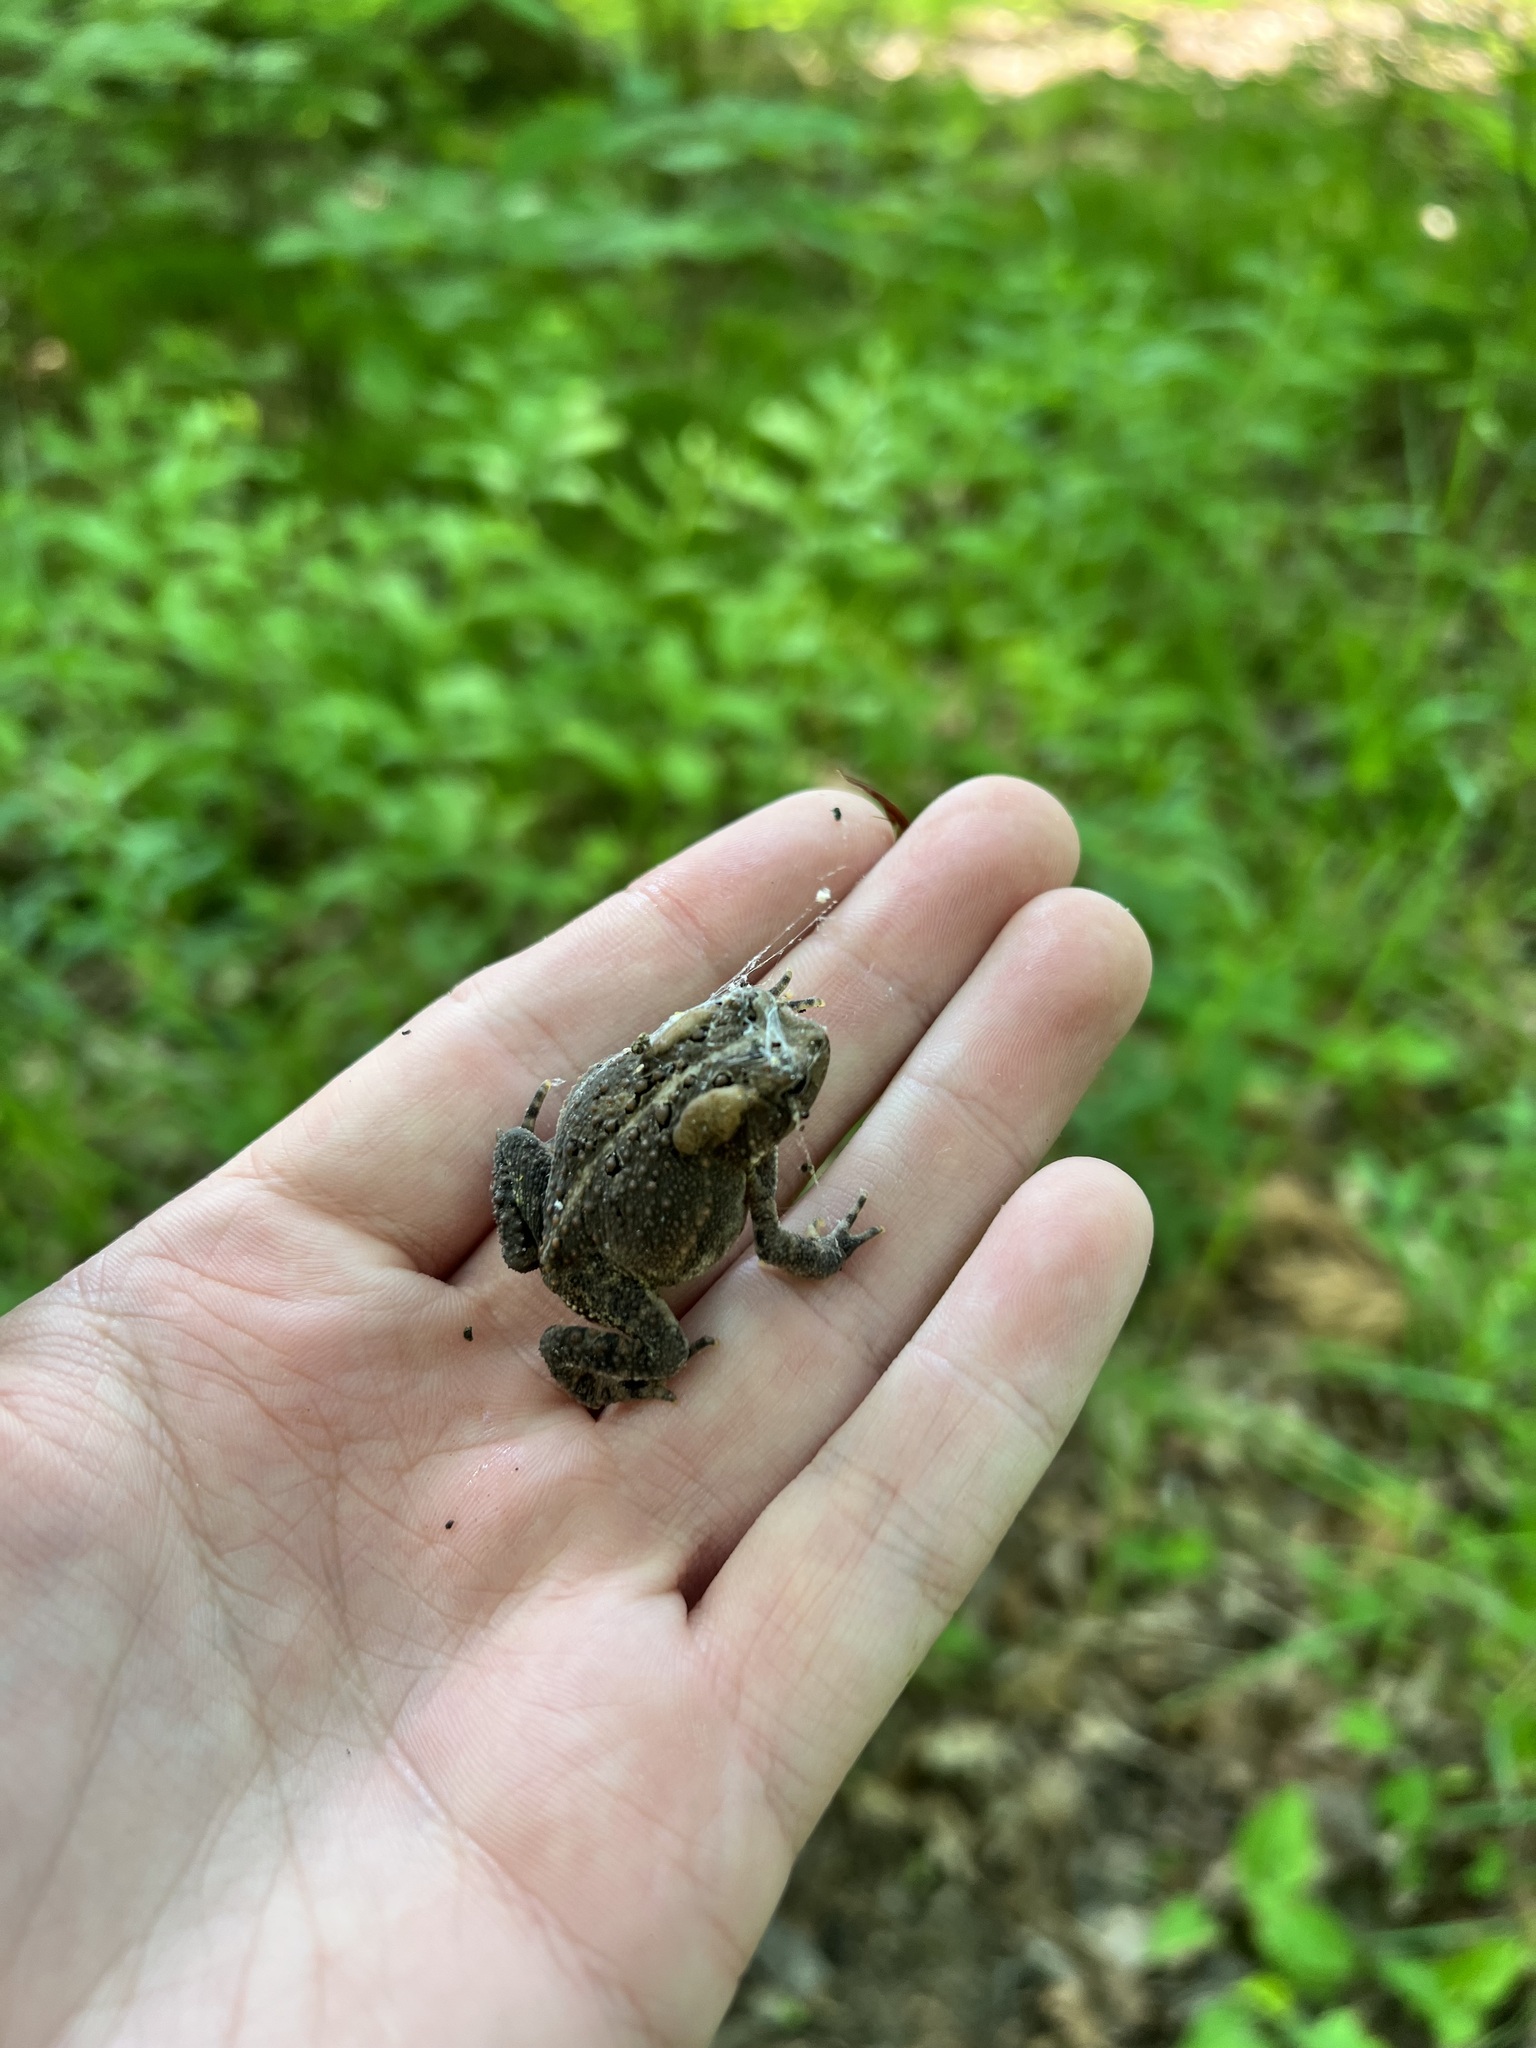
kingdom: Animalia
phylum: Chordata
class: Amphibia
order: Anura
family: Bufonidae
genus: Anaxyrus
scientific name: Anaxyrus americanus
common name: American toad
